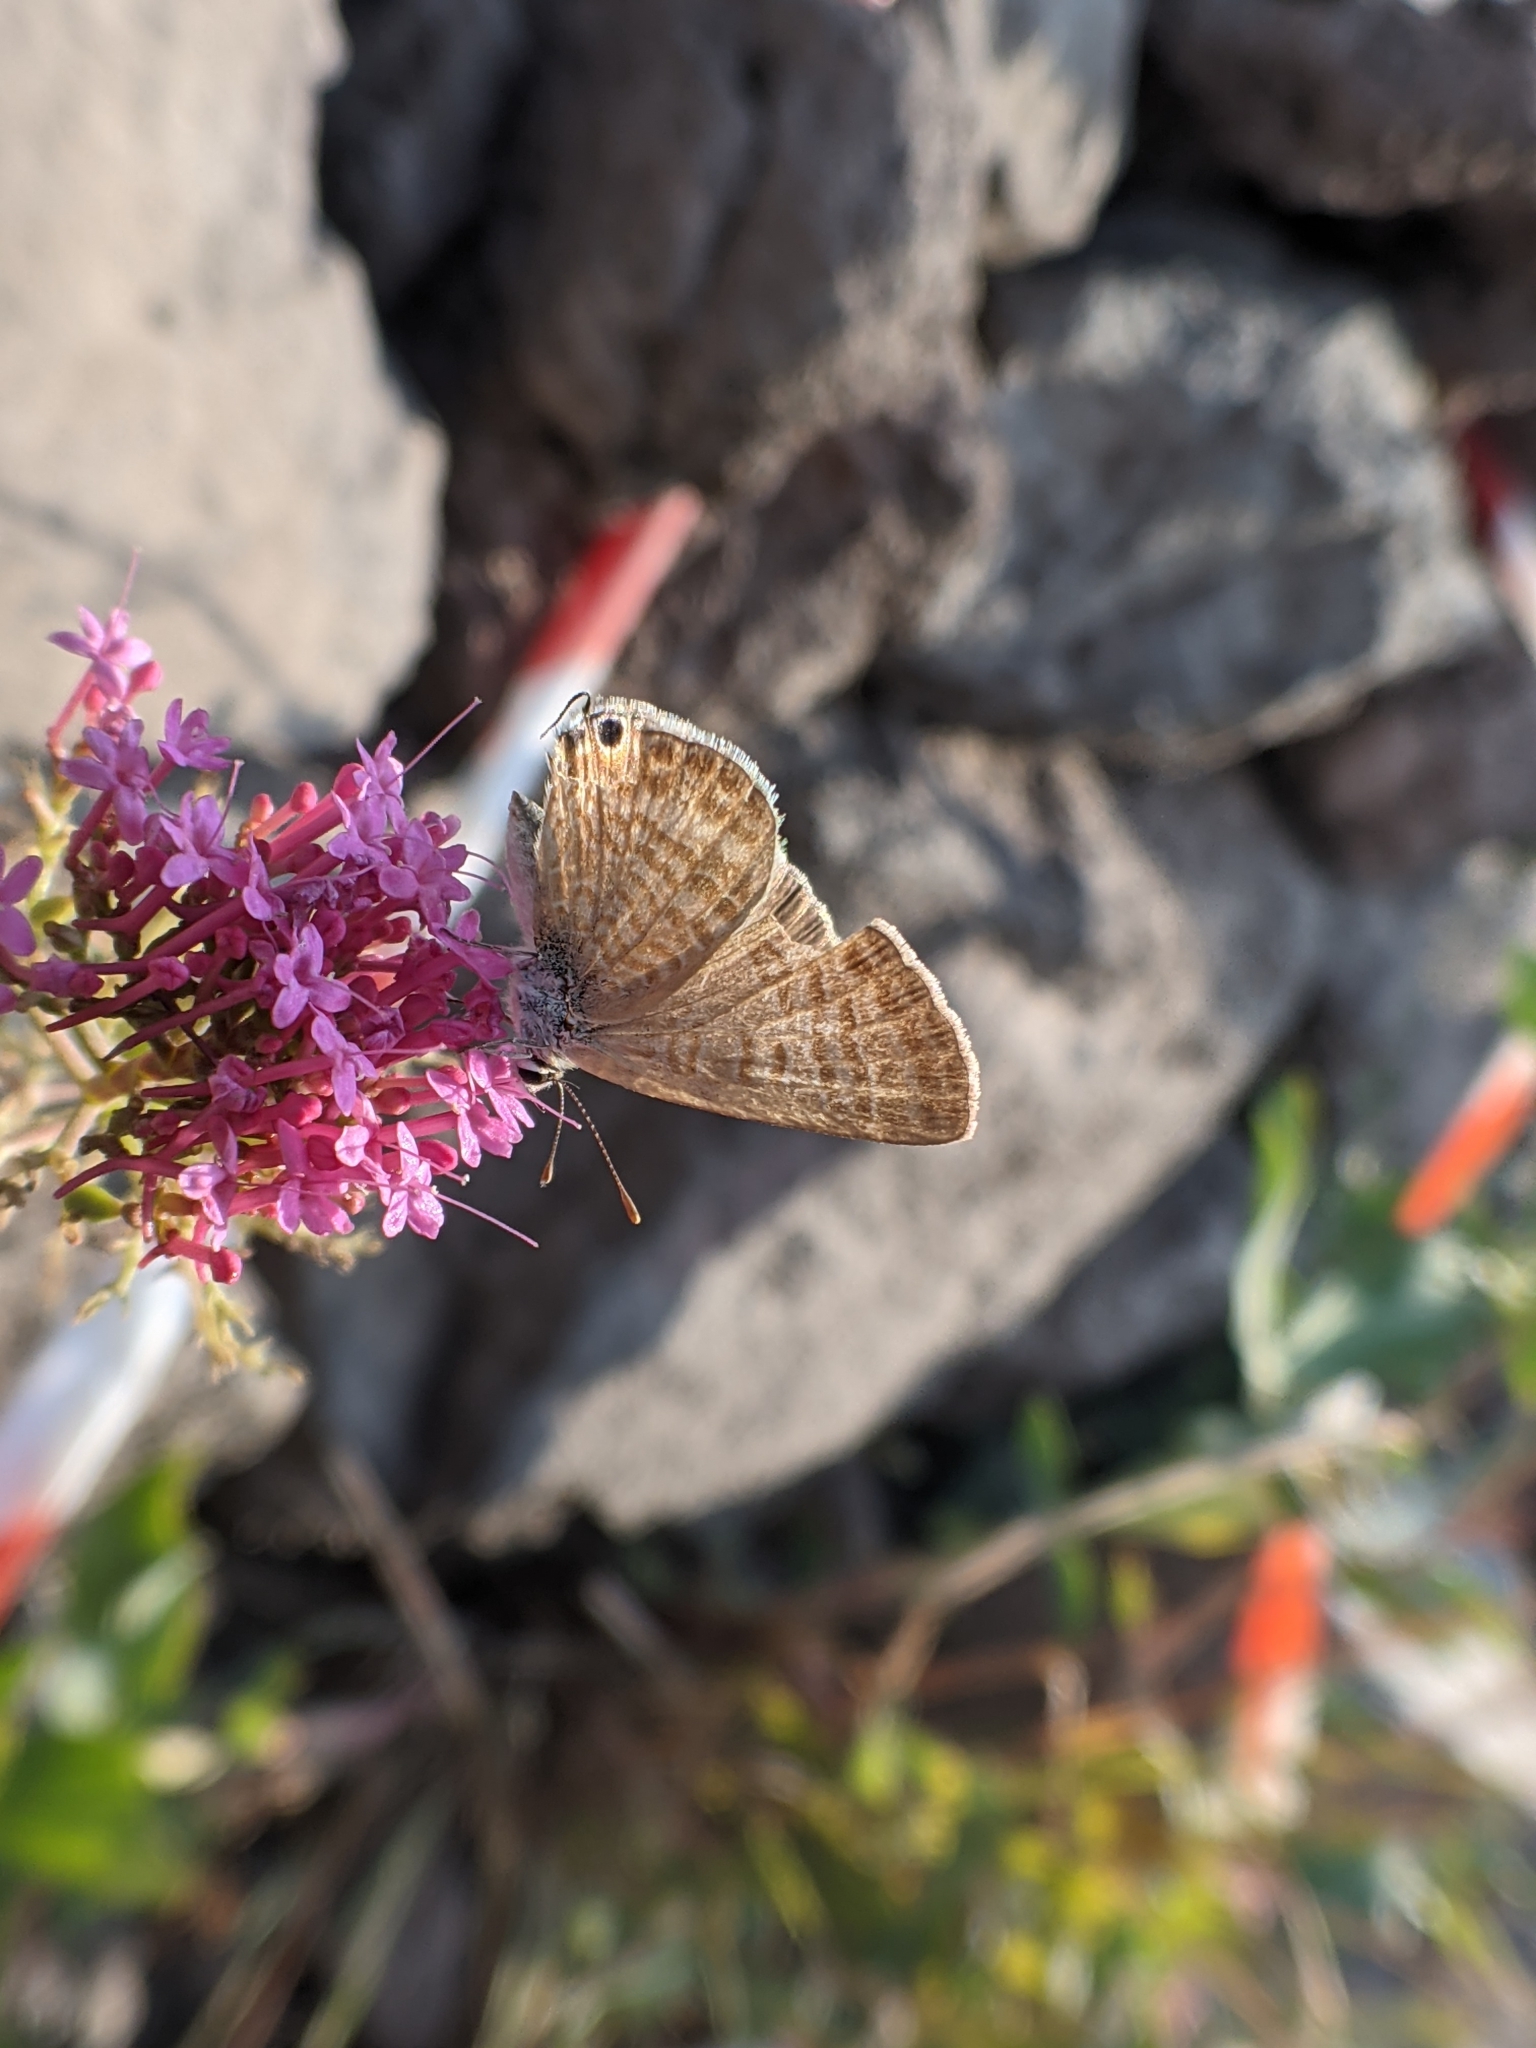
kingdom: Animalia
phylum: Arthropoda
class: Insecta
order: Lepidoptera
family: Lycaenidae
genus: Lampides
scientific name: Lampides boeticus
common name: Long-tailed blue
